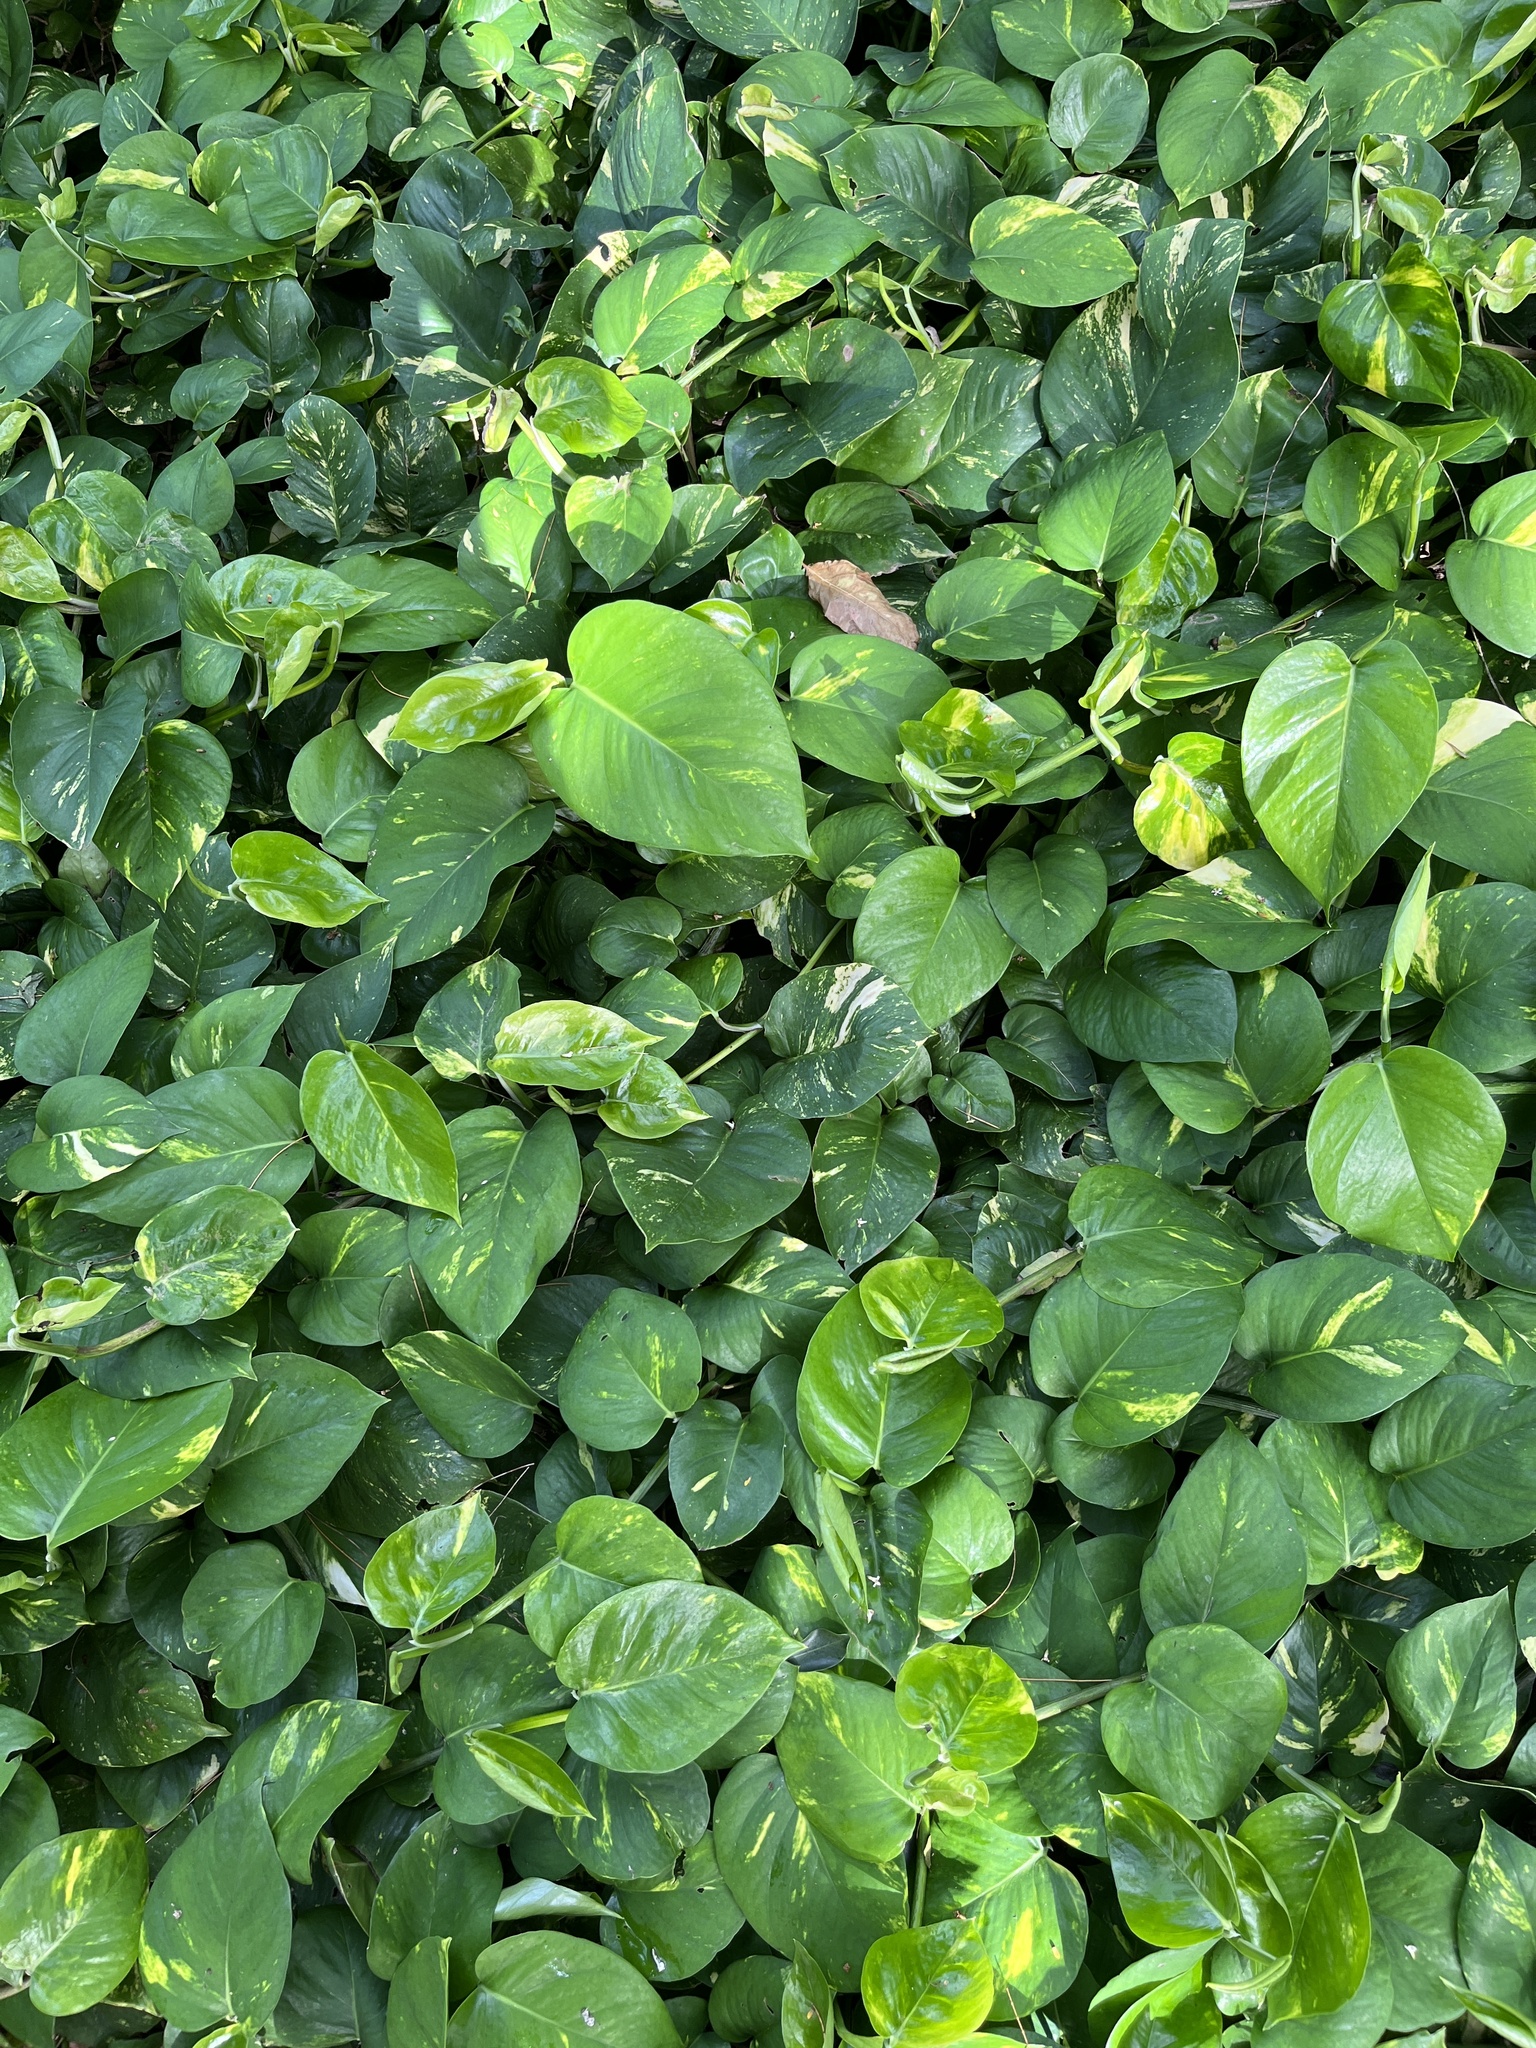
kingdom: Plantae
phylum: Tracheophyta
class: Liliopsida
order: Alismatales
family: Araceae
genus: Epipremnum
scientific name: Epipremnum aureum
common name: Golden hunter's-robe
